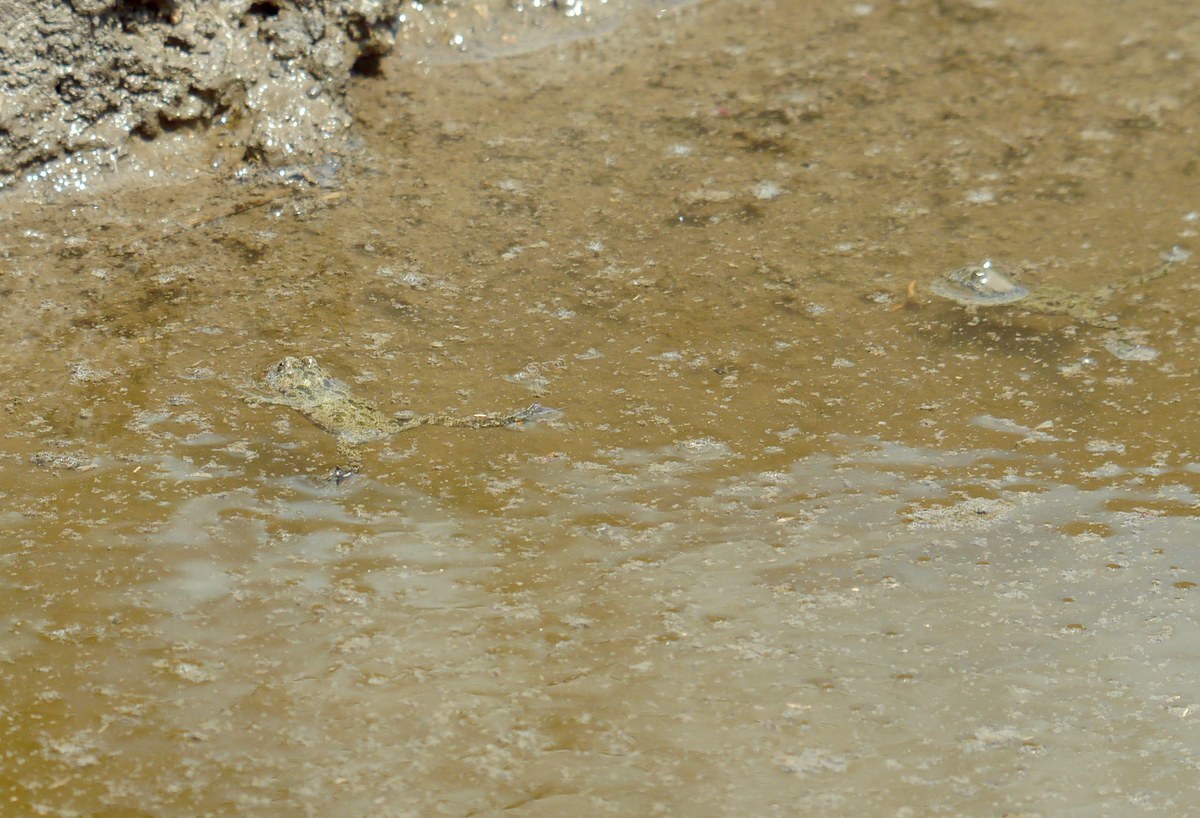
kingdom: Animalia
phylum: Chordata
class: Amphibia
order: Anura
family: Bombinatoridae
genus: Bombina
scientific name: Bombina bombina
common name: Fire-bellied toad
